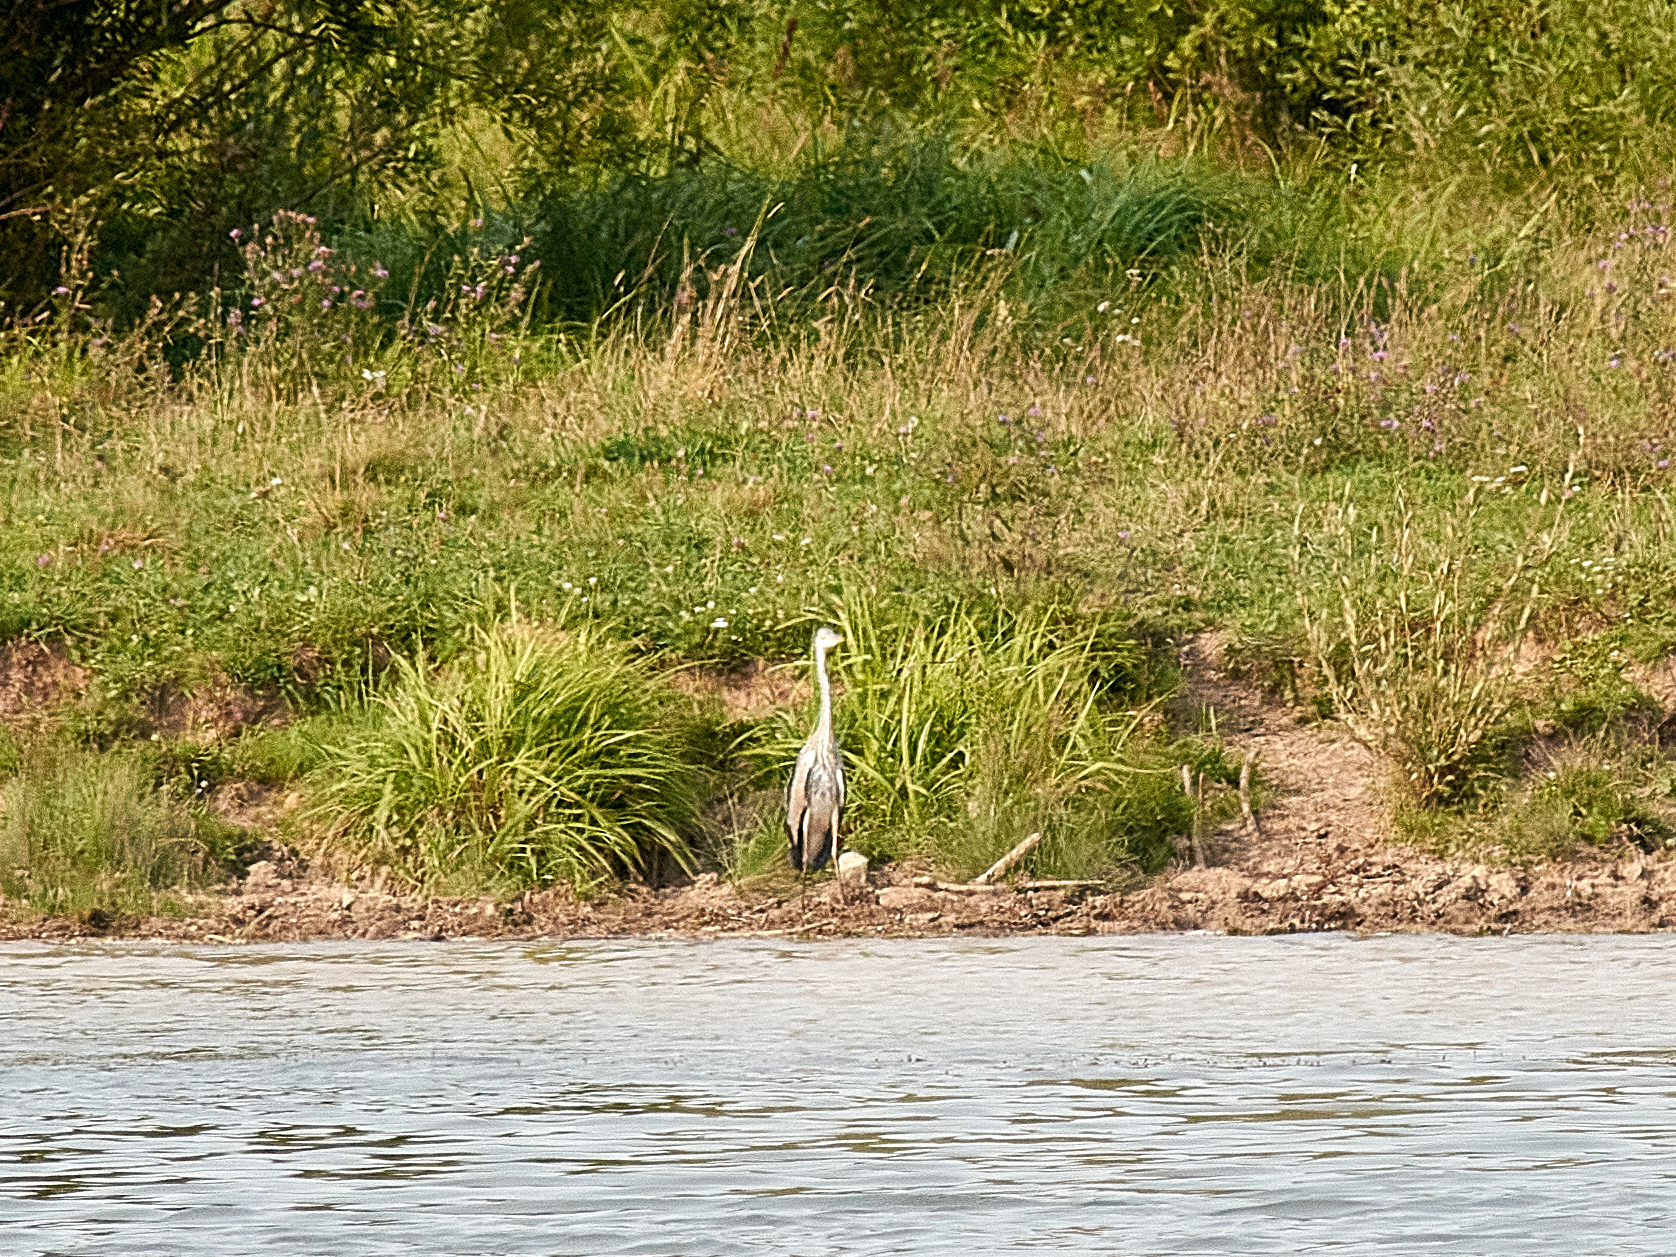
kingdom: Animalia
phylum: Chordata
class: Aves
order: Pelecaniformes
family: Ardeidae
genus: Ardea
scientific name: Ardea cinerea
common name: Grey heron
